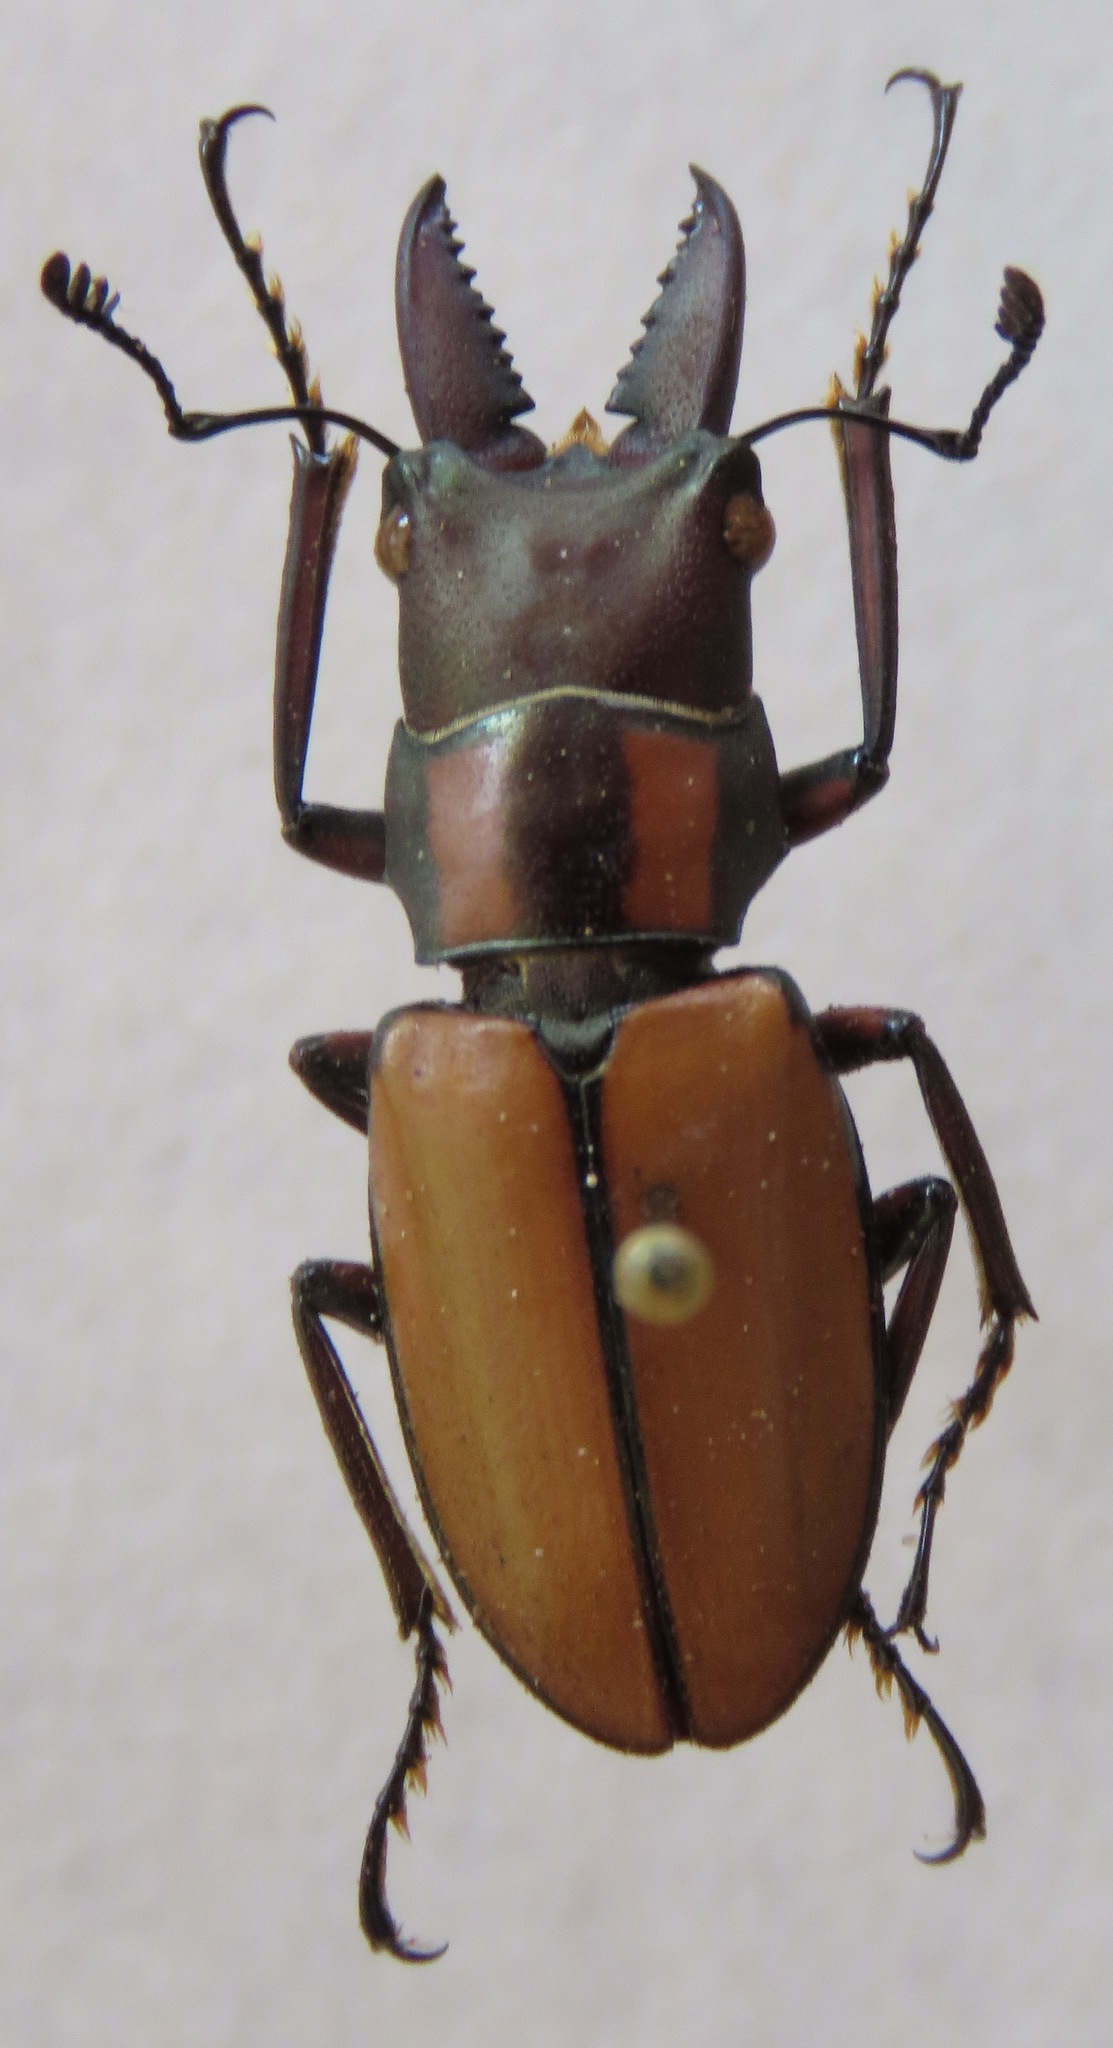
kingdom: Animalia
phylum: Arthropoda
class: Insecta
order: Coleoptera
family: Lucanidae
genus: Cyclommatinus
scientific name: Cyclommatinus albersii
